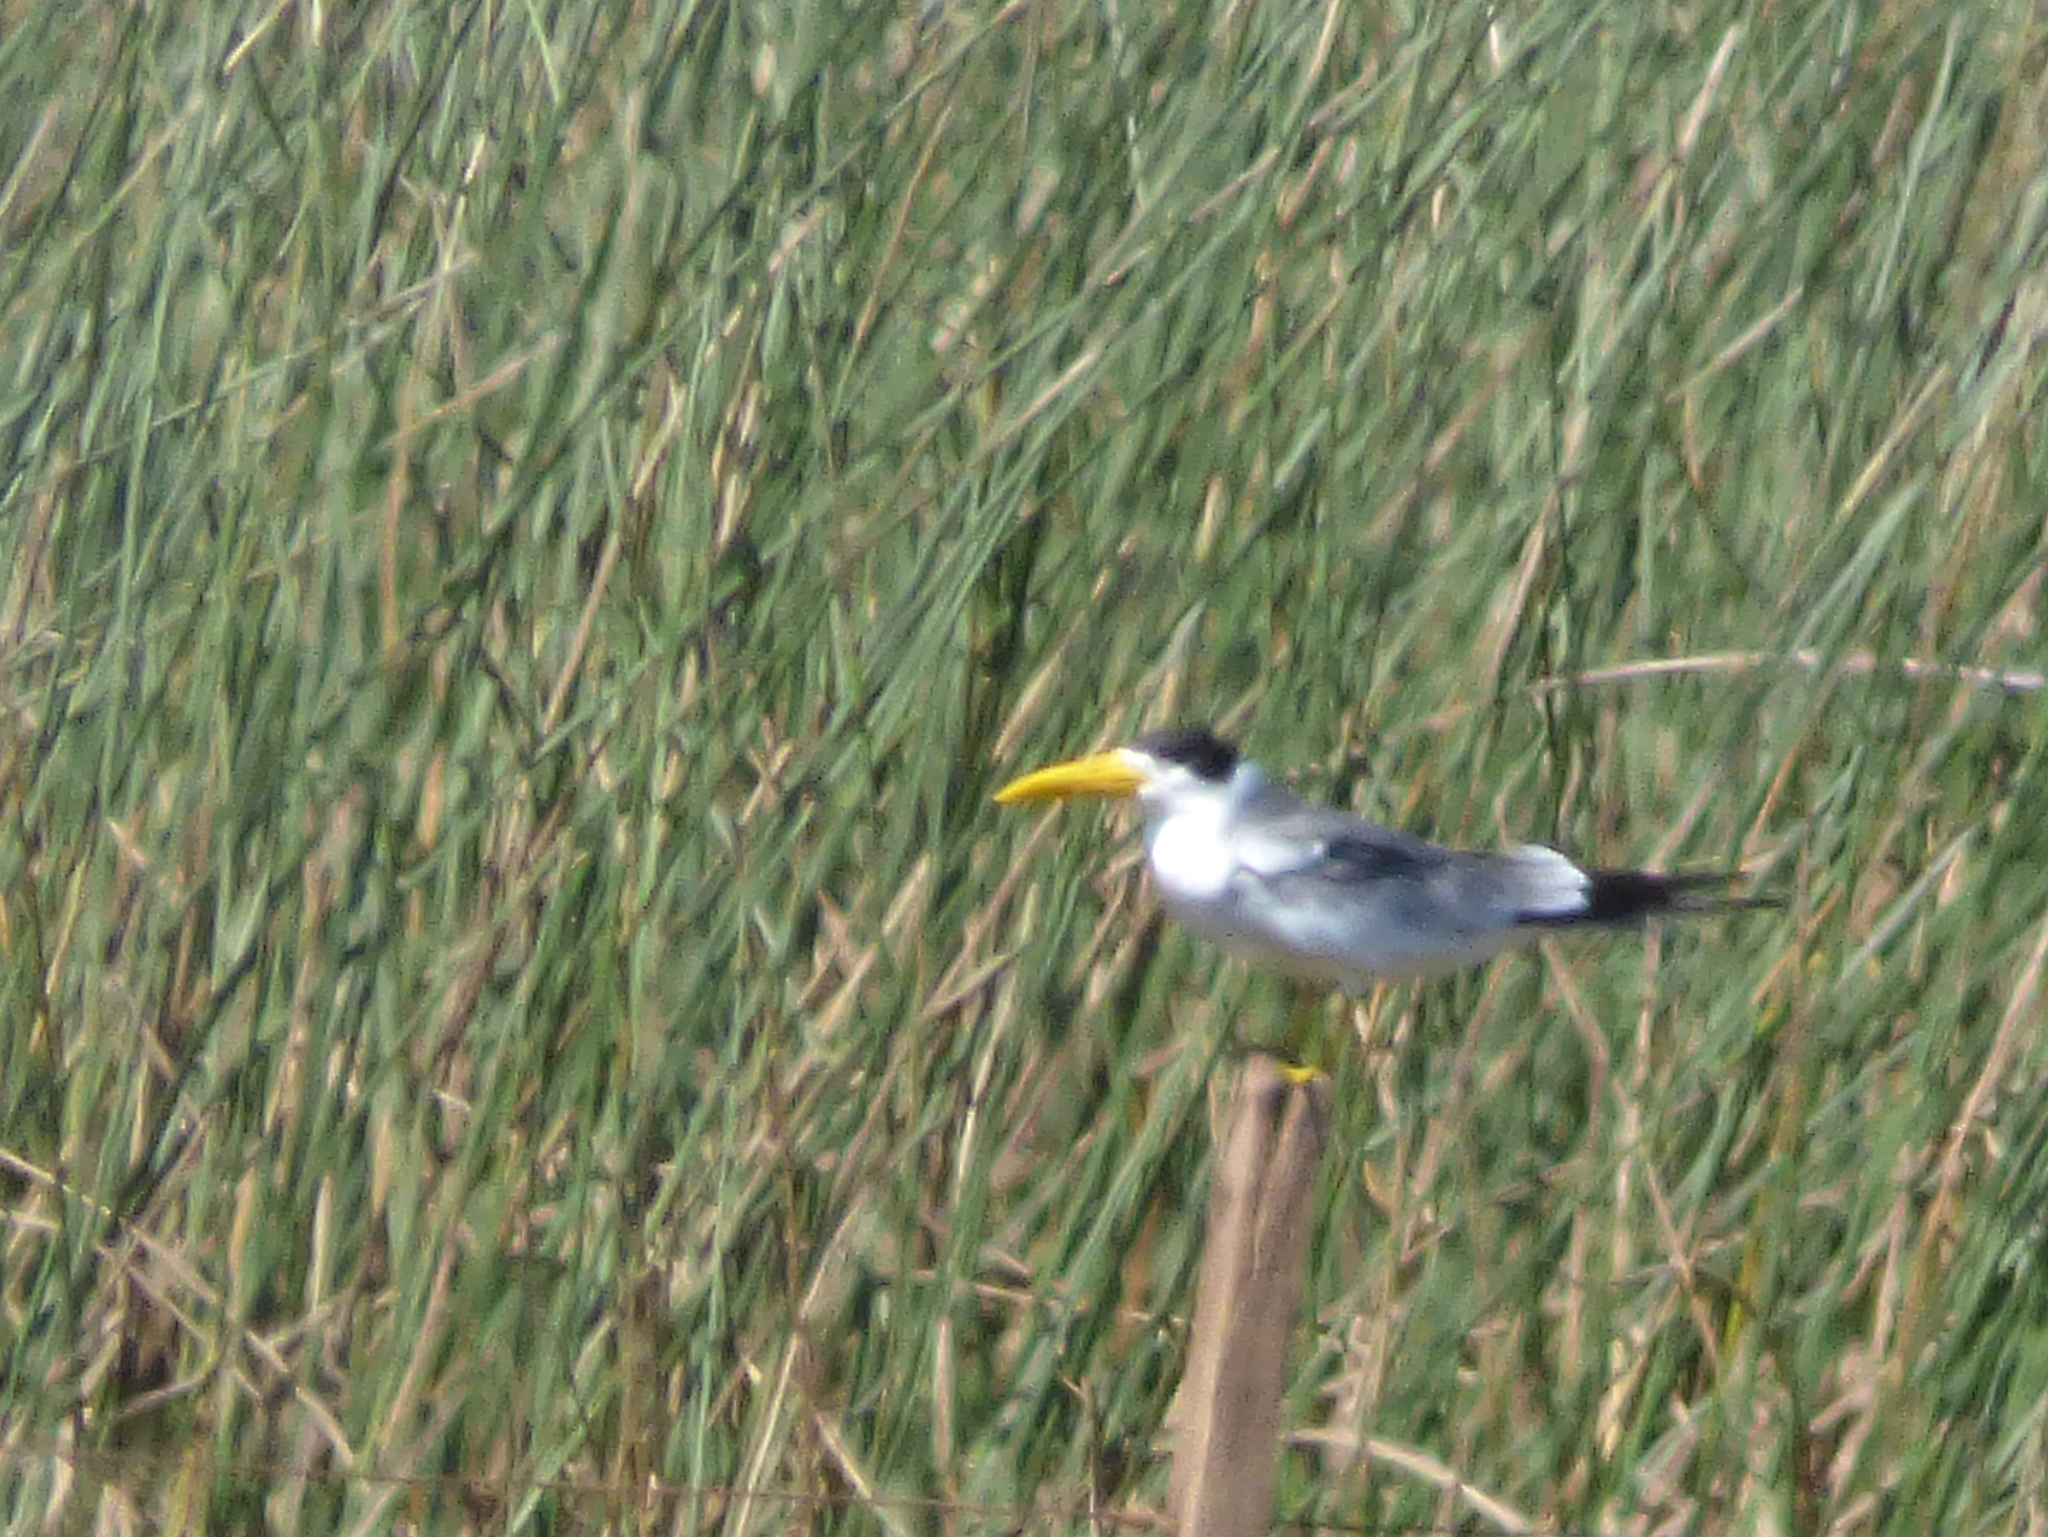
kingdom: Animalia
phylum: Chordata
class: Aves
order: Charadriiformes
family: Laridae
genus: Phaetusa
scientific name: Phaetusa simplex
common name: Large-billed tern
